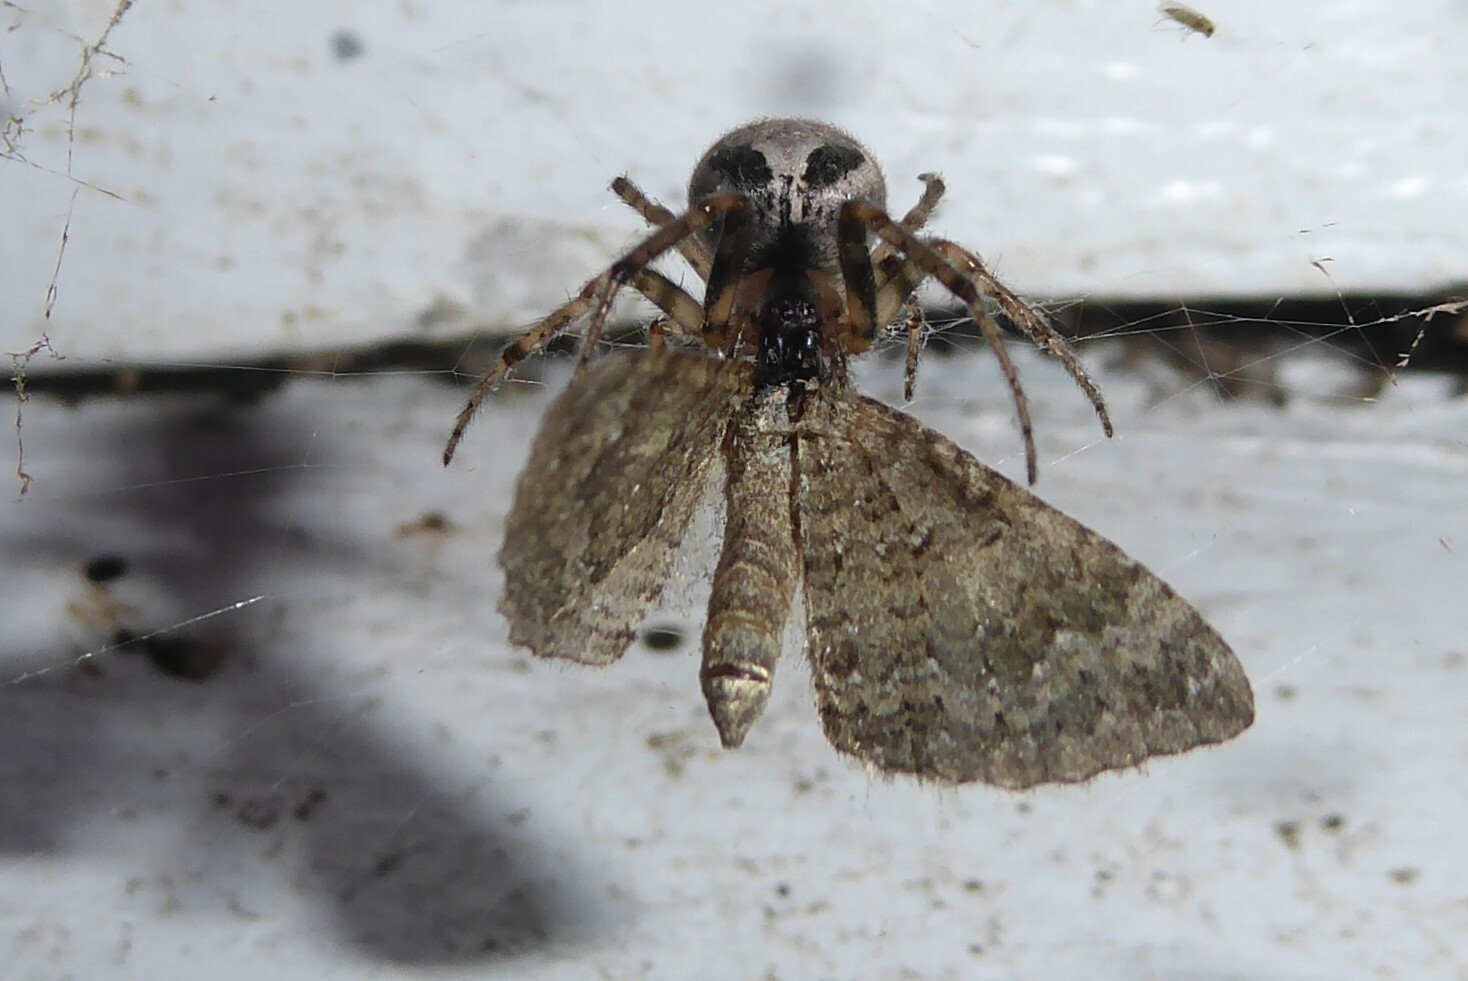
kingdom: Animalia
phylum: Arthropoda
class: Arachnida
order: Araneae
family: Araneidae
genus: Zygiella
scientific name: Zygiella x-notata
